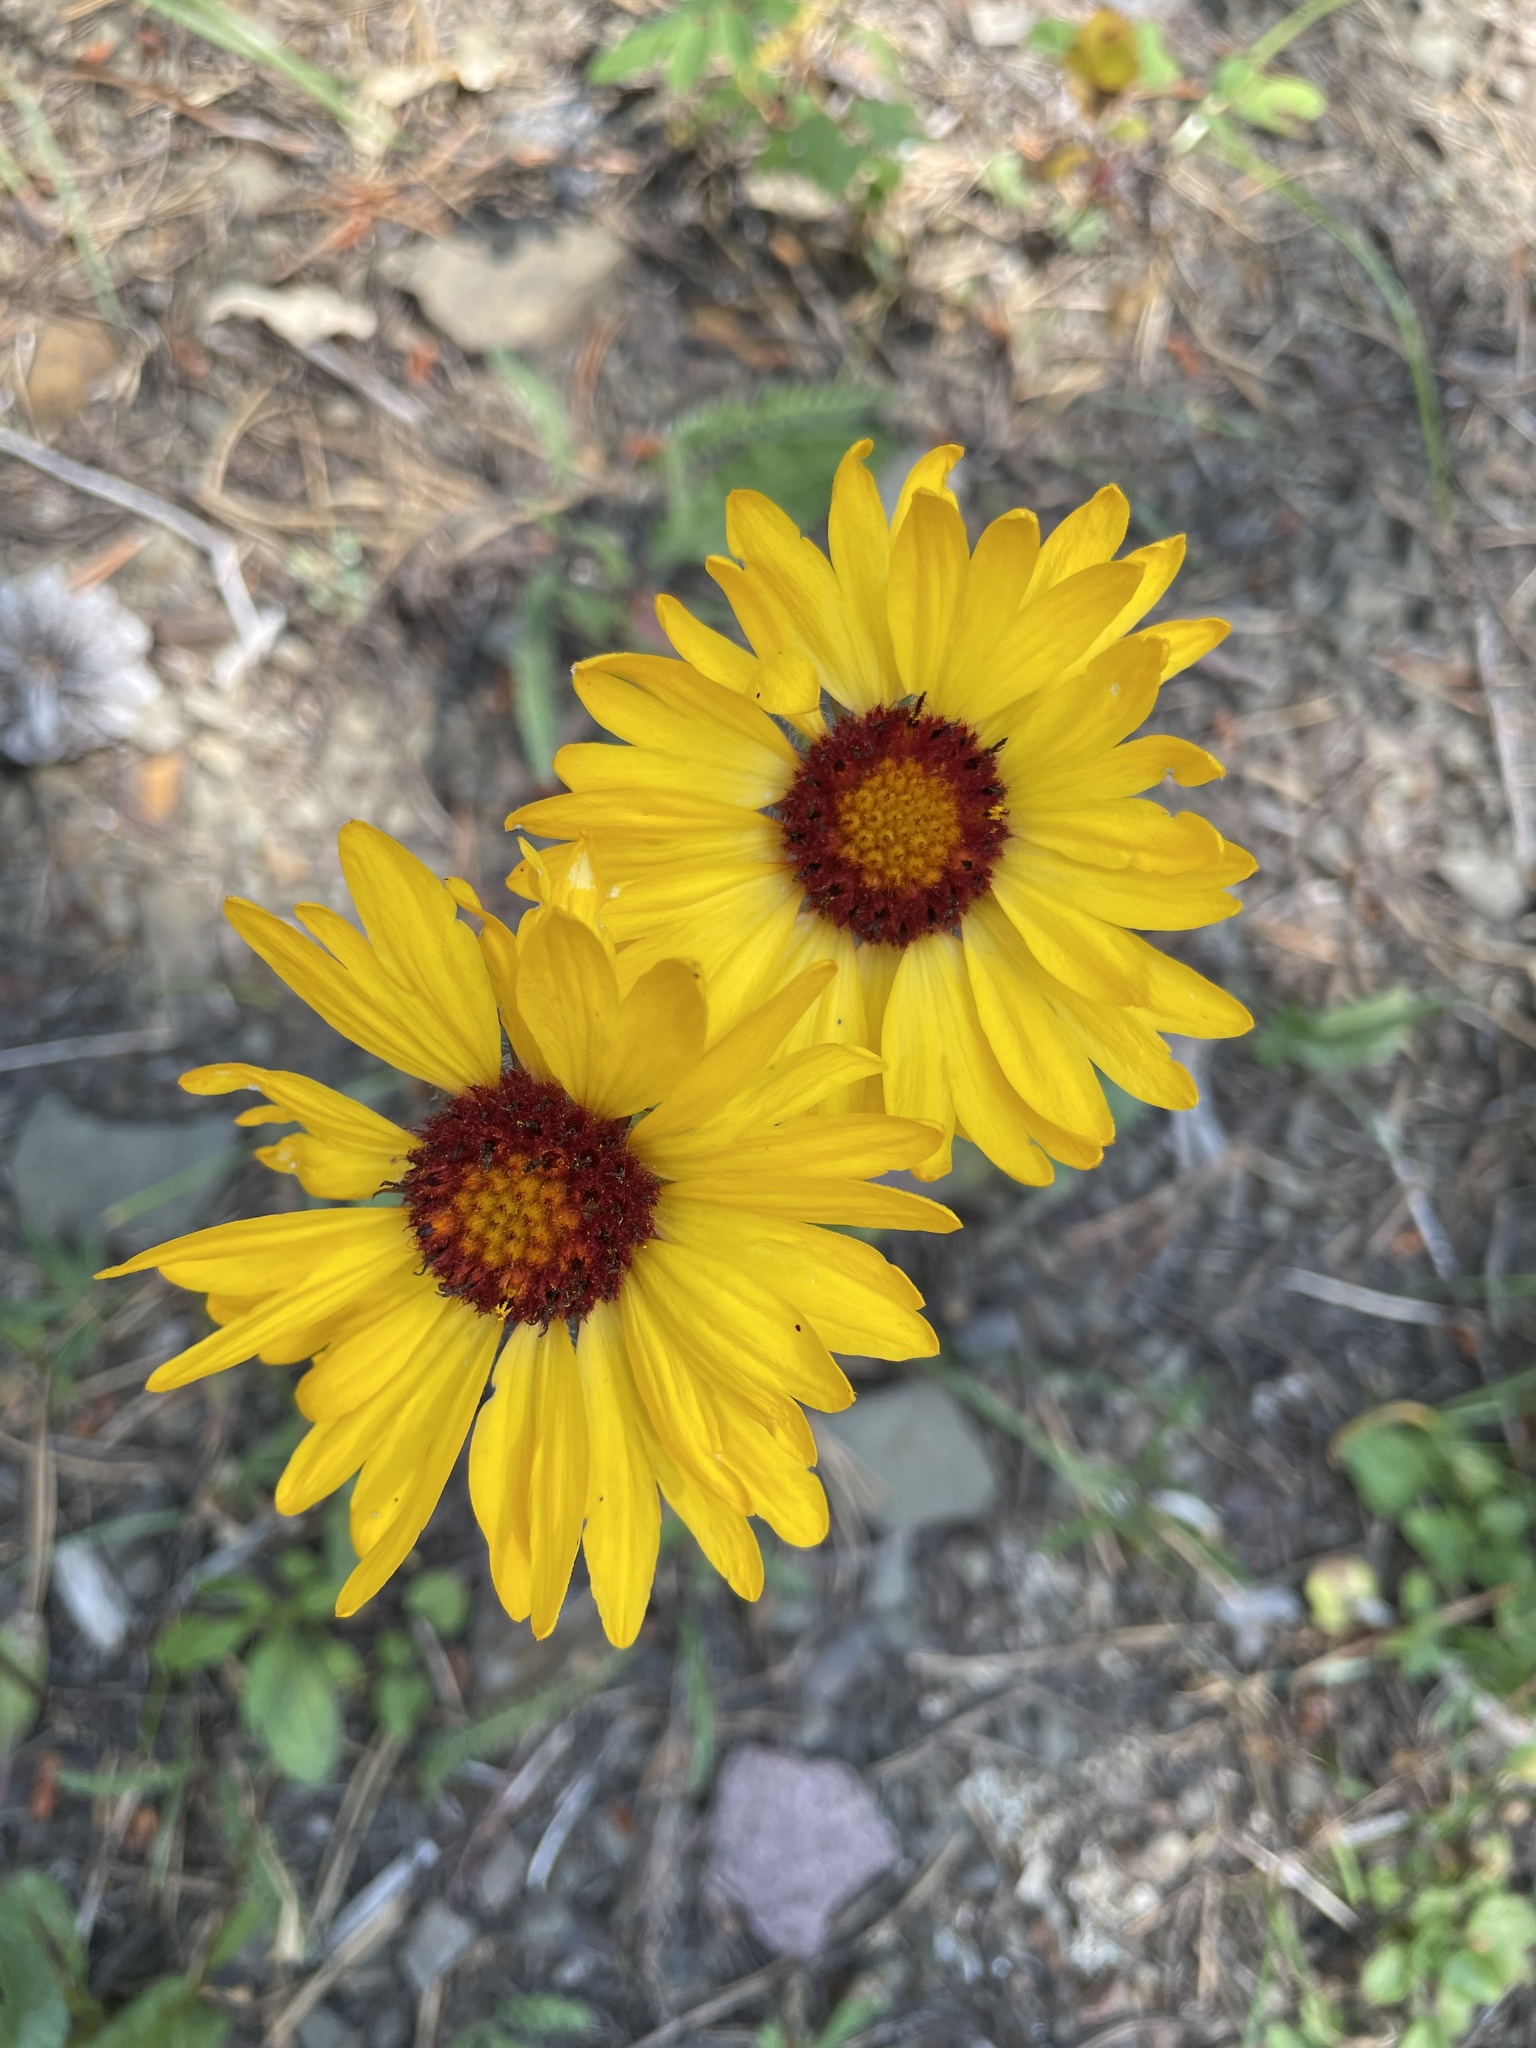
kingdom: Plantae
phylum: Tracheophyta
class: Magnoliopsida
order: Asterales
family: Asteraceae
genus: Gaillardia
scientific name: Gaillardia aristata
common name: Blanket-flower
